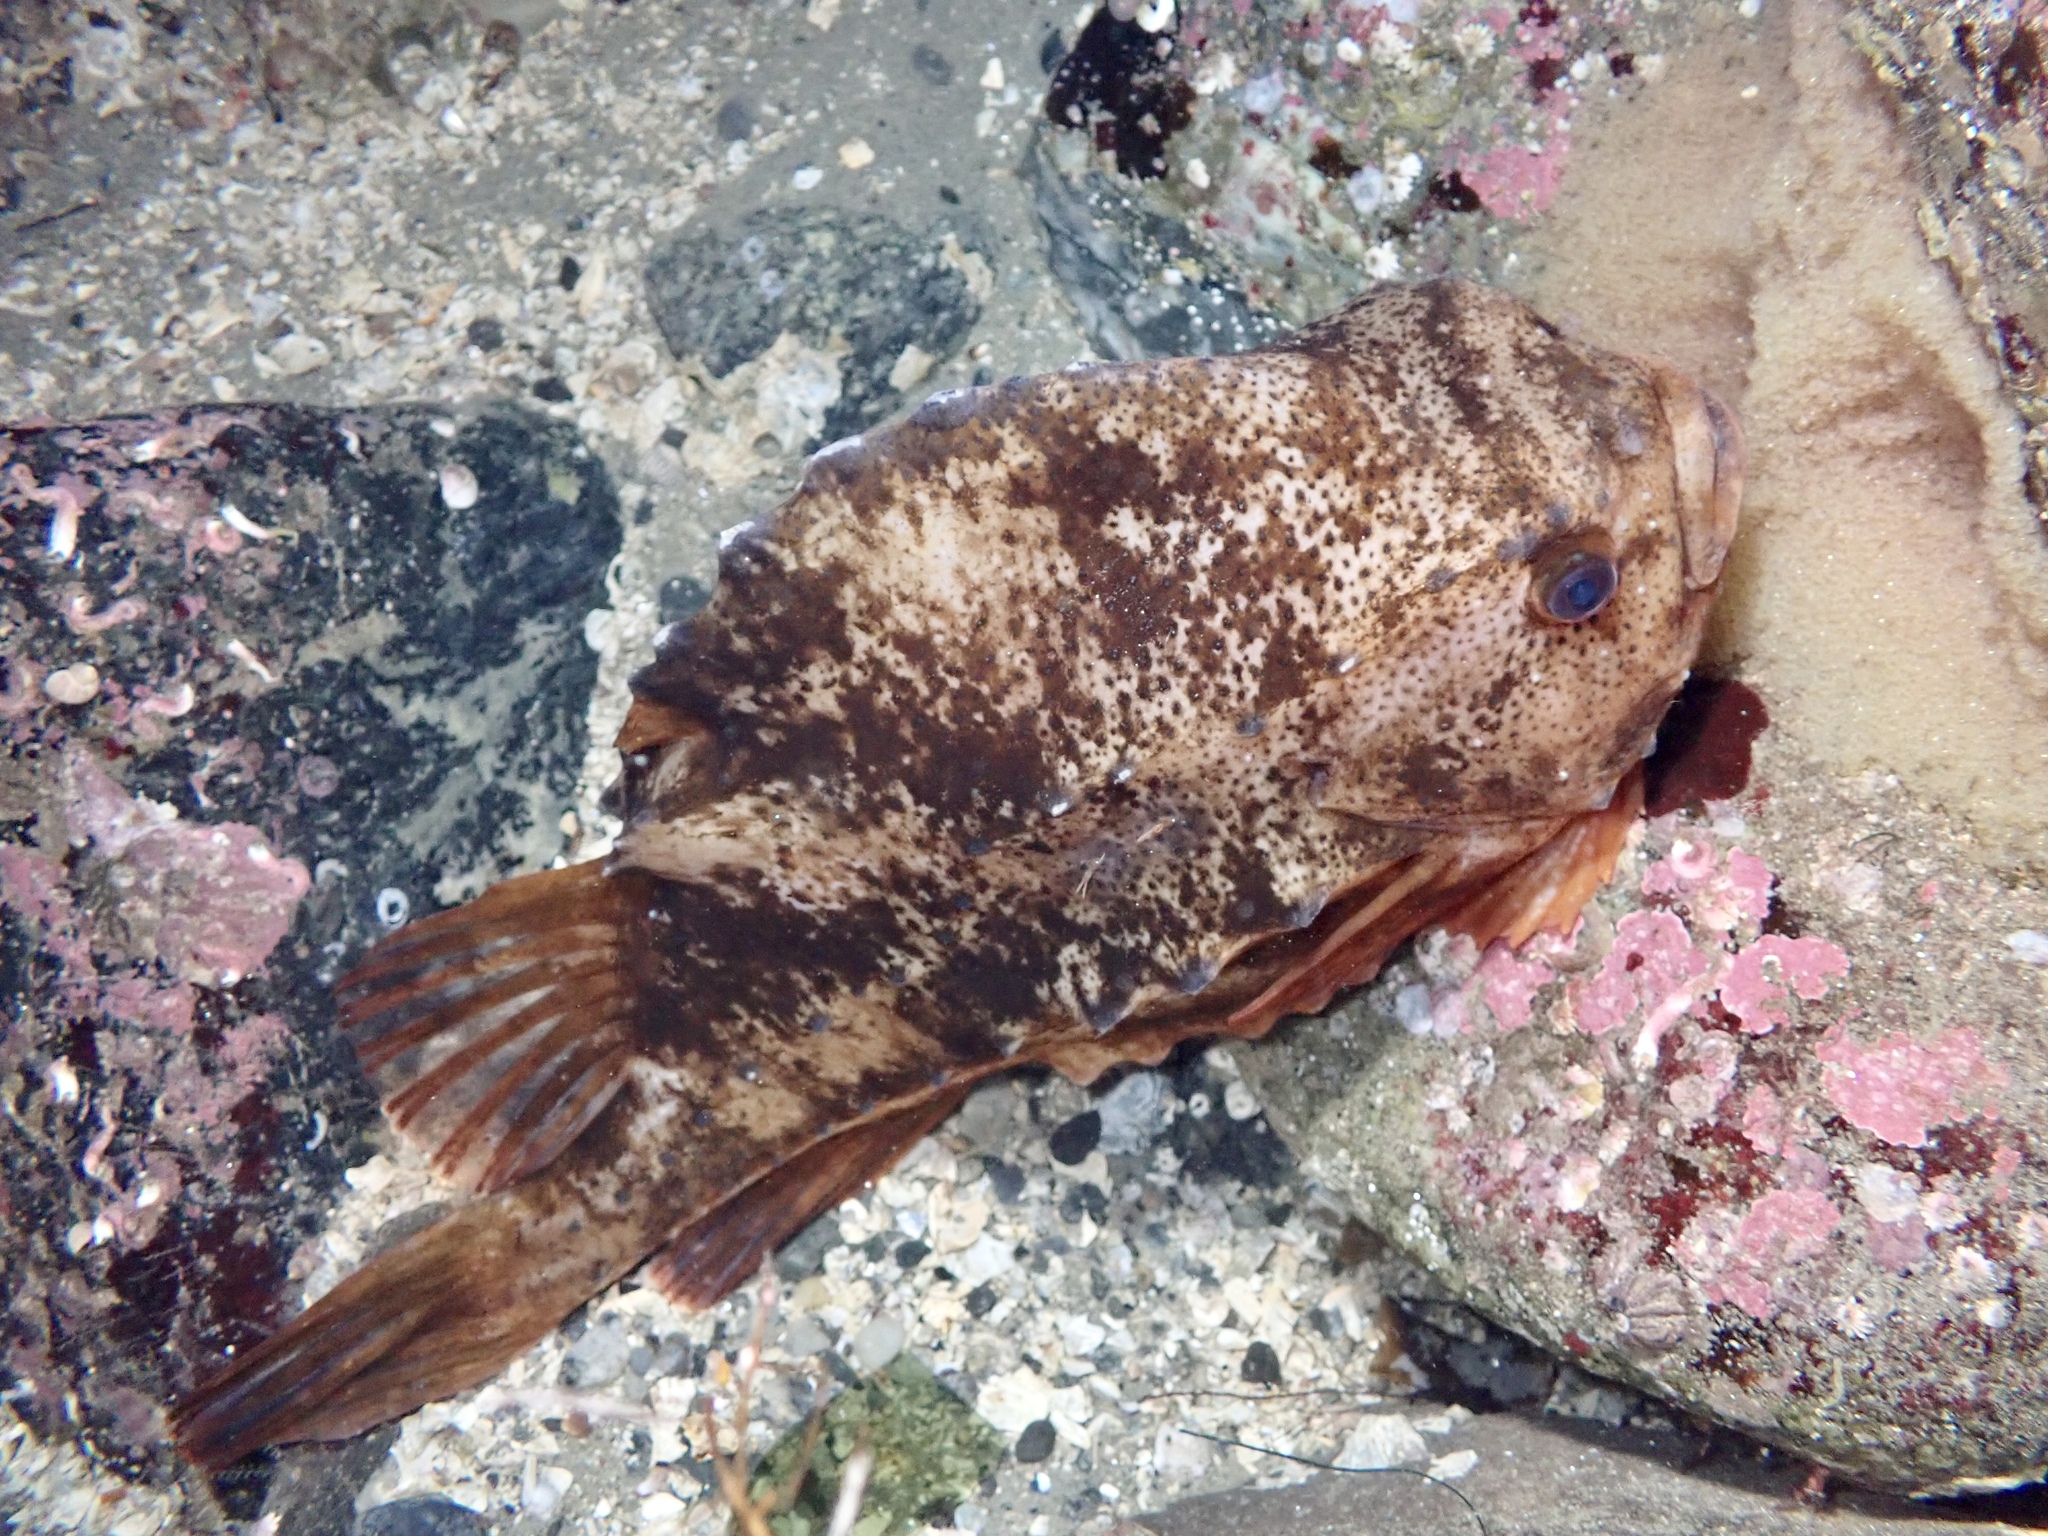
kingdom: Animalia
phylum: Chordata
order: Scorpaeniformes
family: Cyclopteridae
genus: Cyclopterus
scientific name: Cyclopterus lumpus
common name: Lumpsucker
